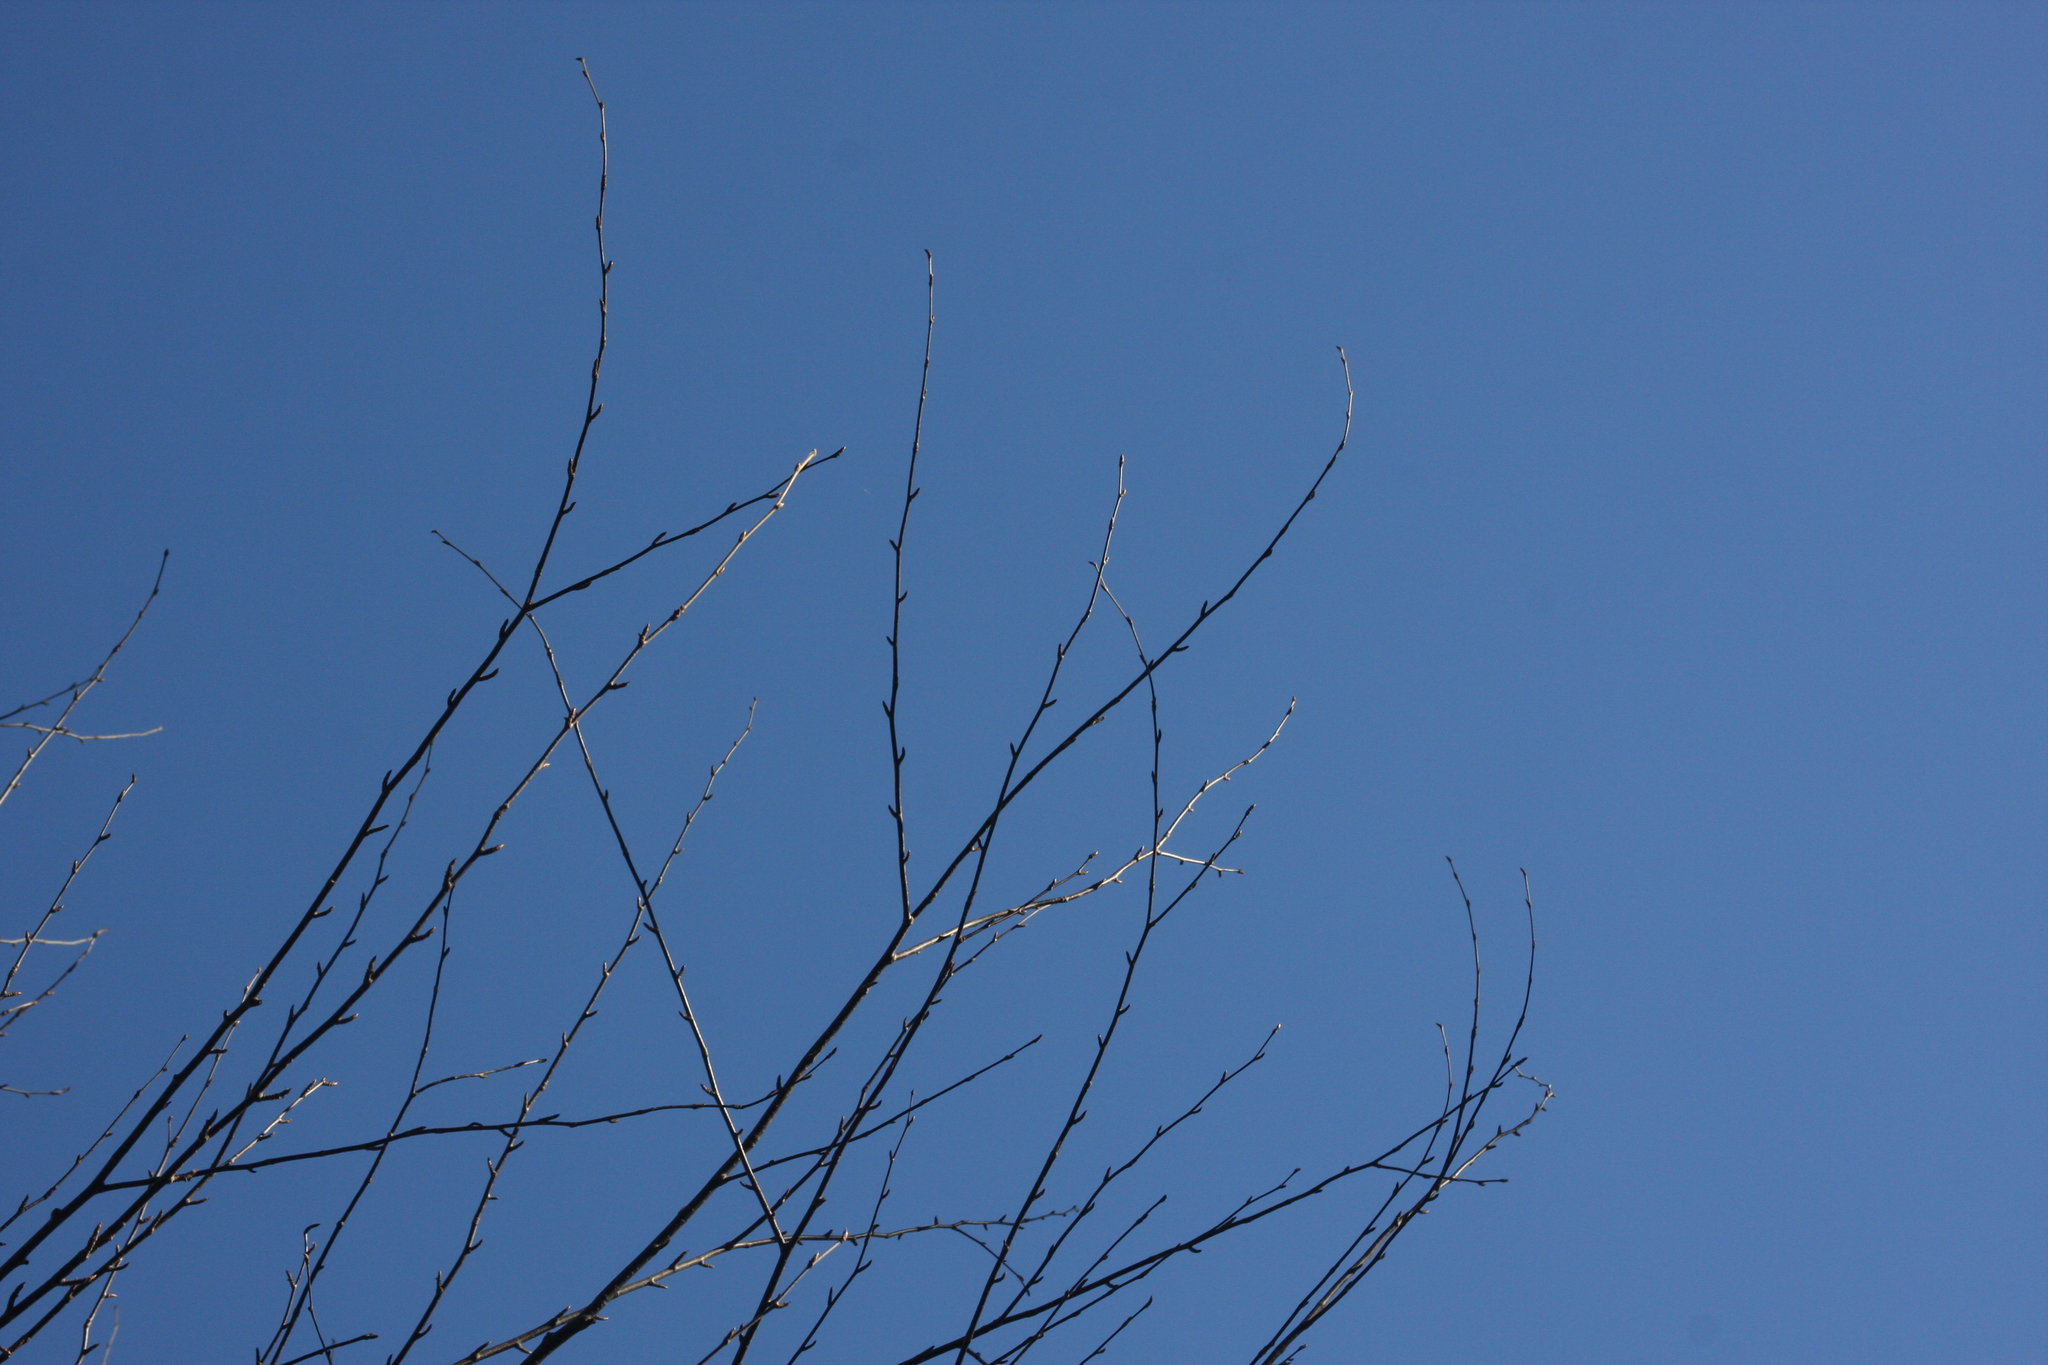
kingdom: Plantae
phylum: Tracheophyta
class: Magnoliopsida
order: Fagales
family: Betulaceae
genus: Betula
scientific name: Betula alleghaniensis
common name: Yellow birch
